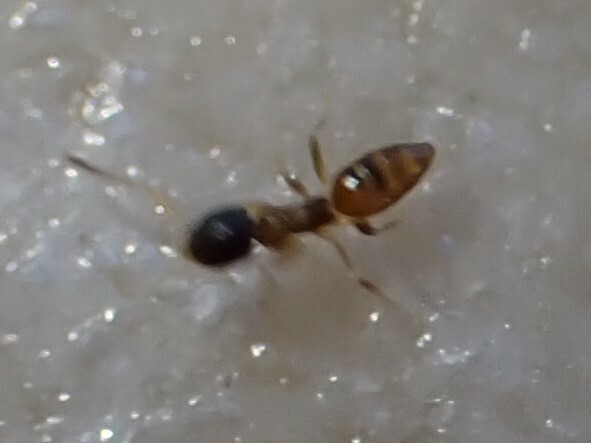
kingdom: Animalia
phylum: Arthropoda
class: Insecta
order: Hymenoptera
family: Formicidae
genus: Tapinoma
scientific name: Tapinoma melanocephalum
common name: Ghost ant
